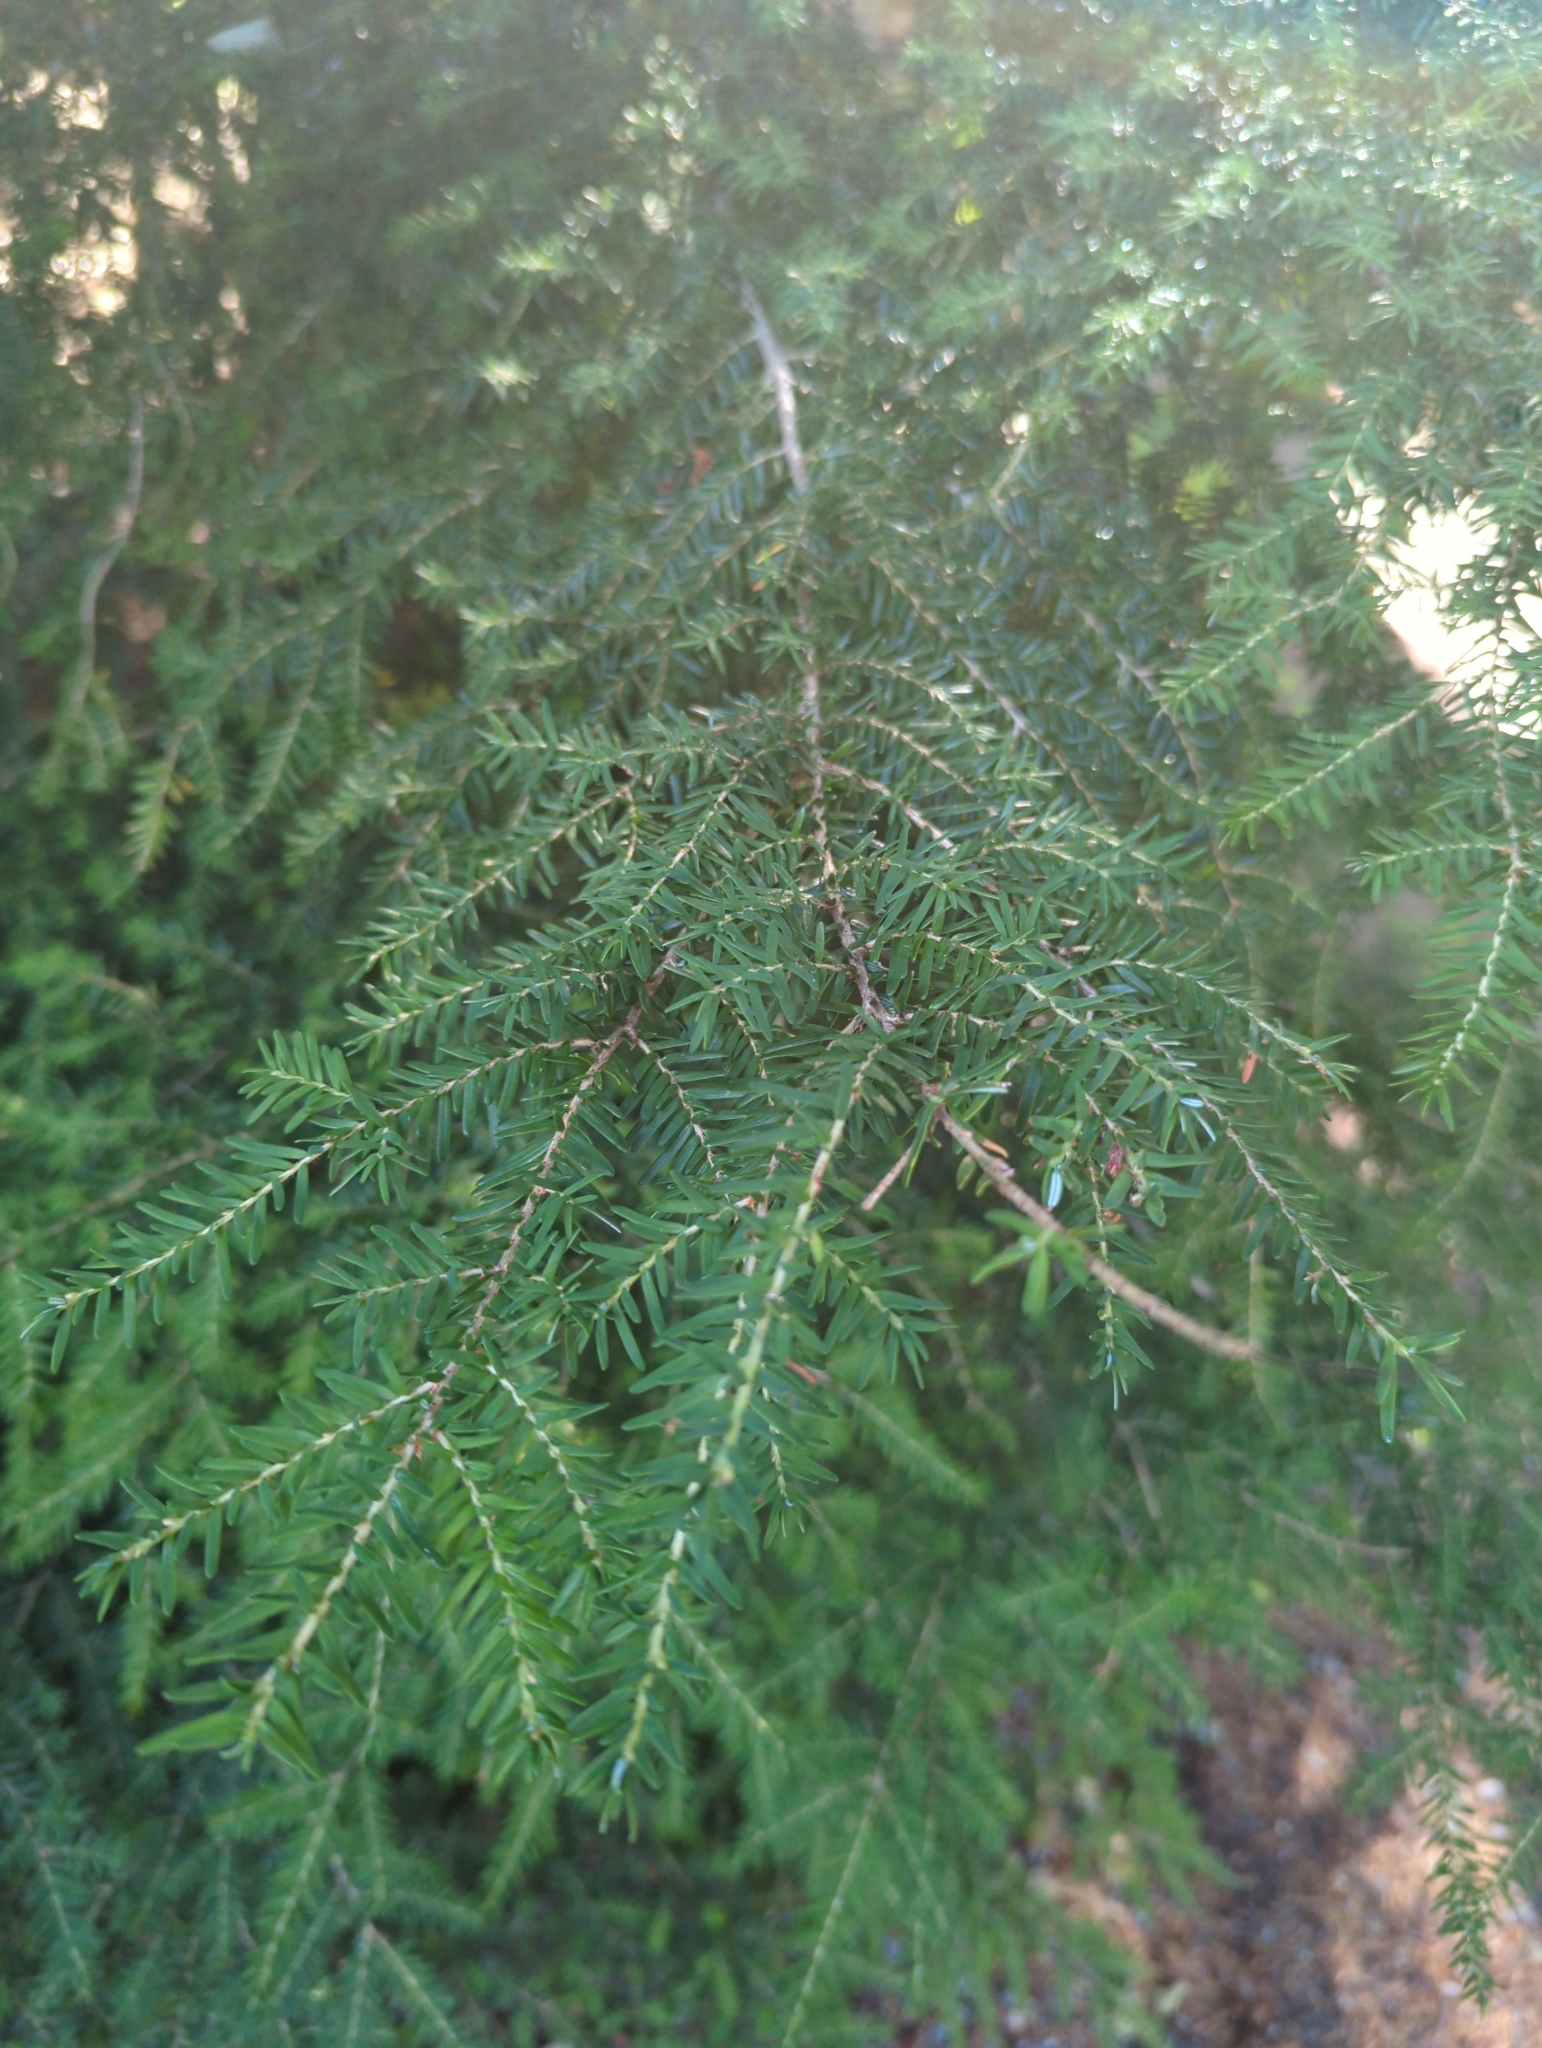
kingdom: Plantae
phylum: Tracheophyta
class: Pinopsida
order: Pinales
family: Pinaceae
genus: Tsuga
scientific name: Tsuga heterophylla
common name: Western hemlock
